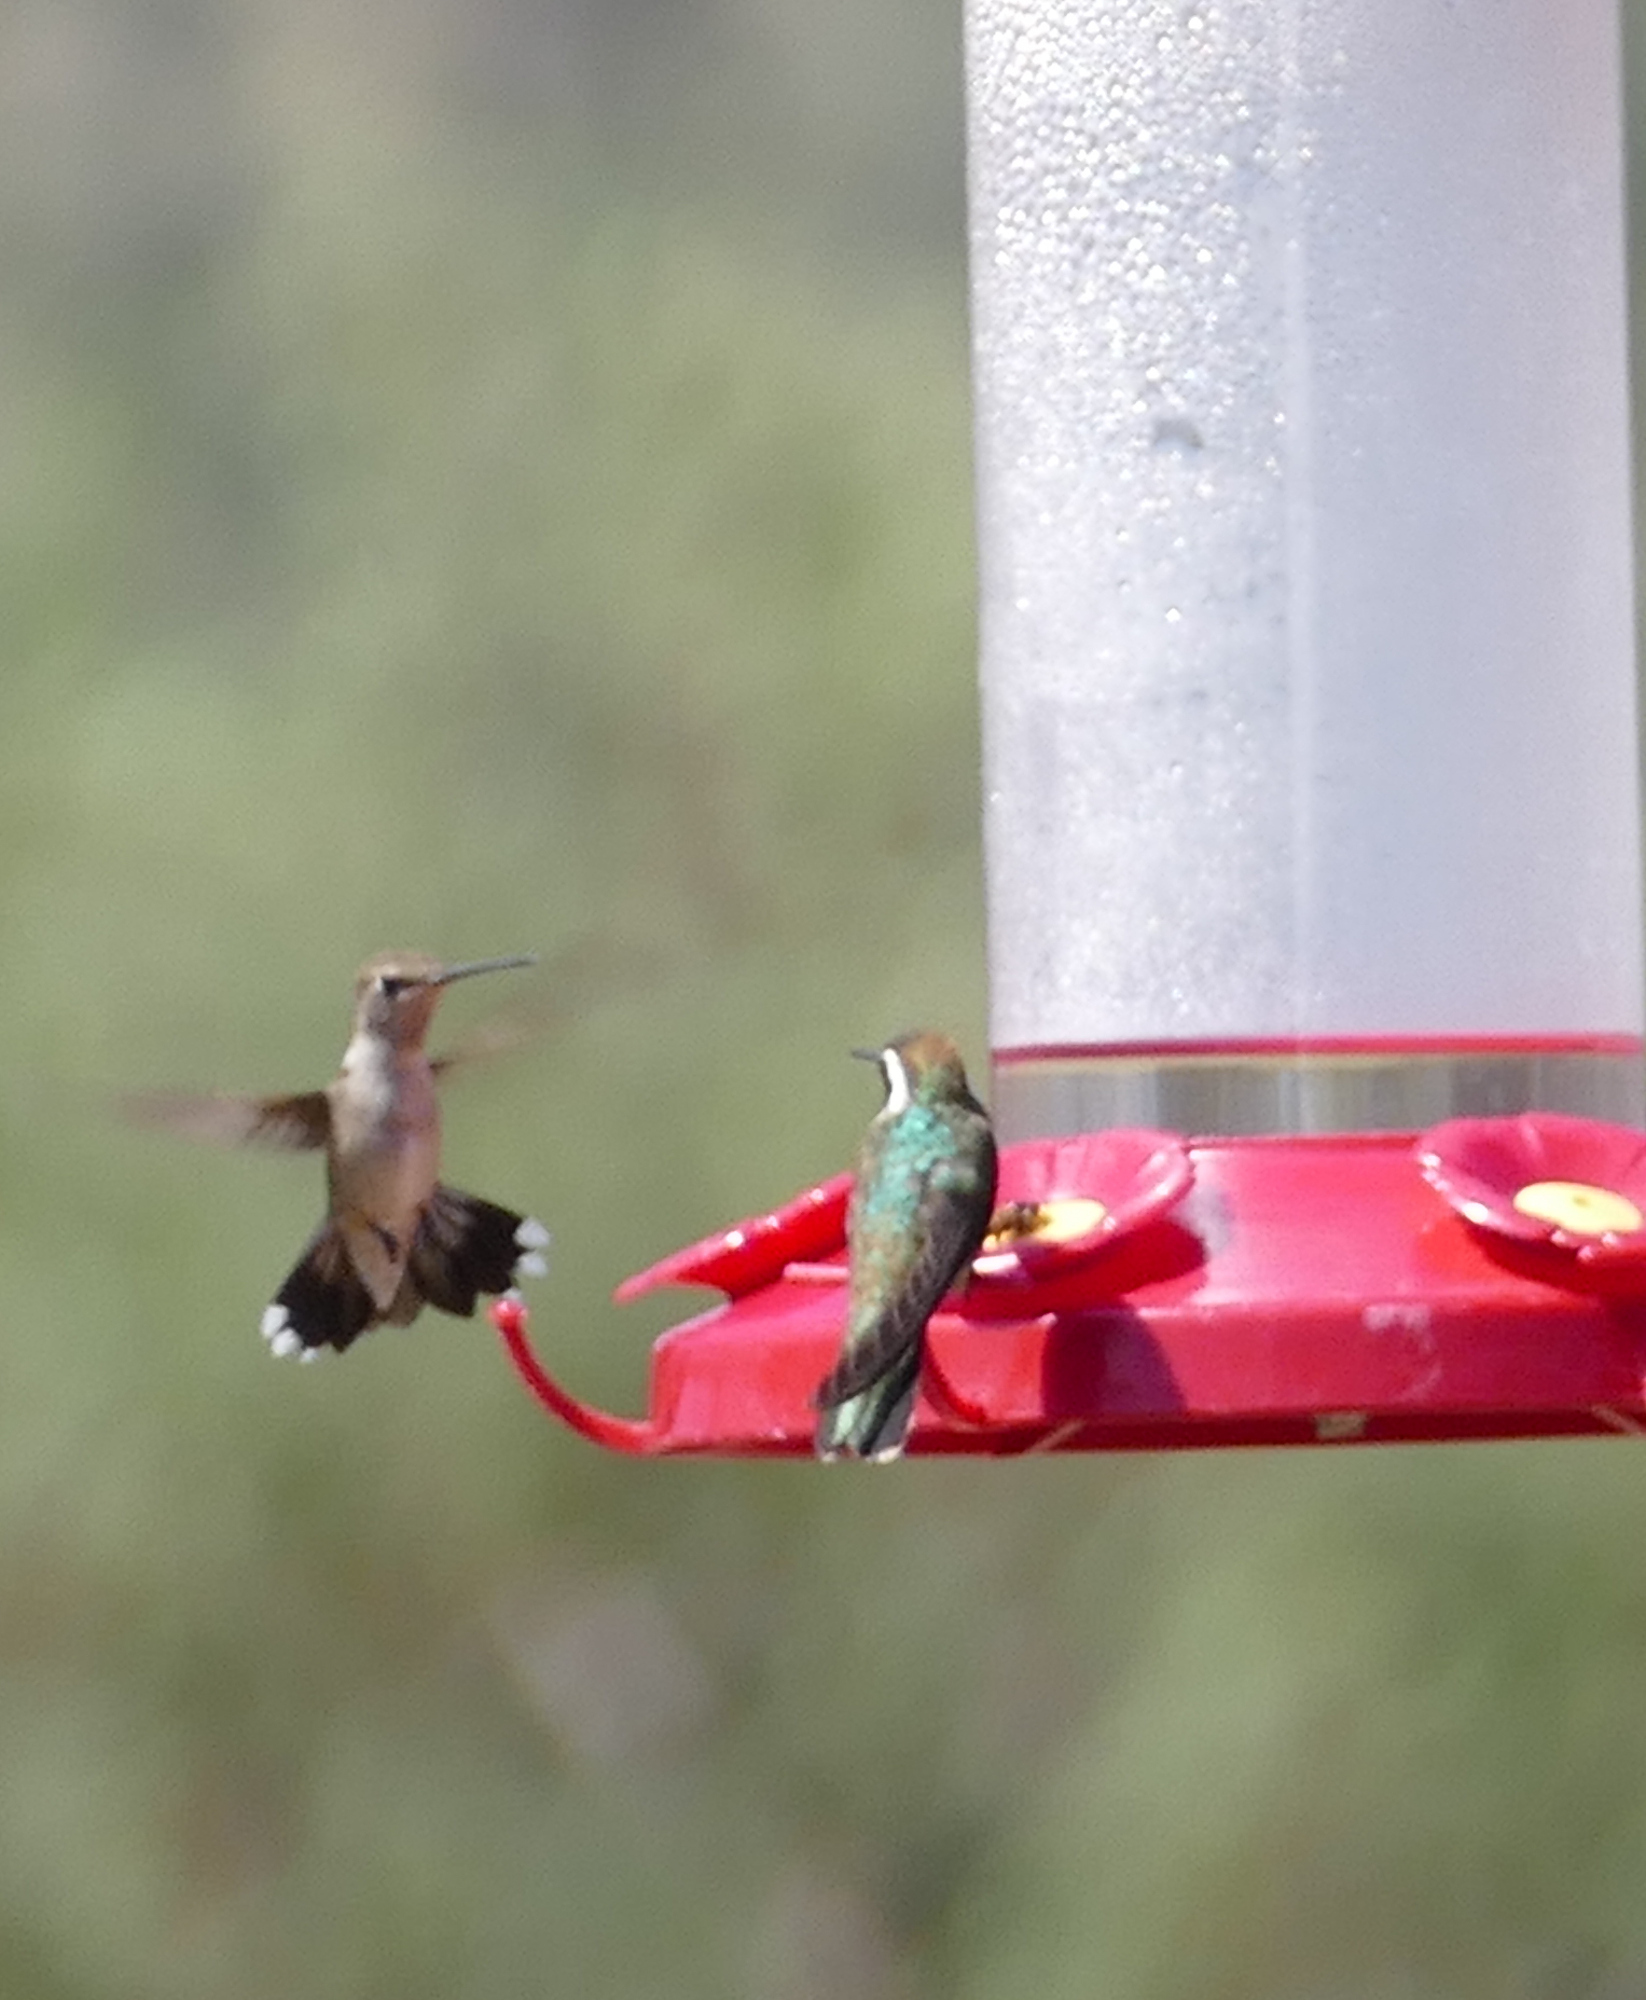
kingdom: Animalia
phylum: Chordata
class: Aves
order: Apodiformes
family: Trochilidae
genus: Basilinna
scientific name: Basilinna leucotis
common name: White-eared hummingbird
